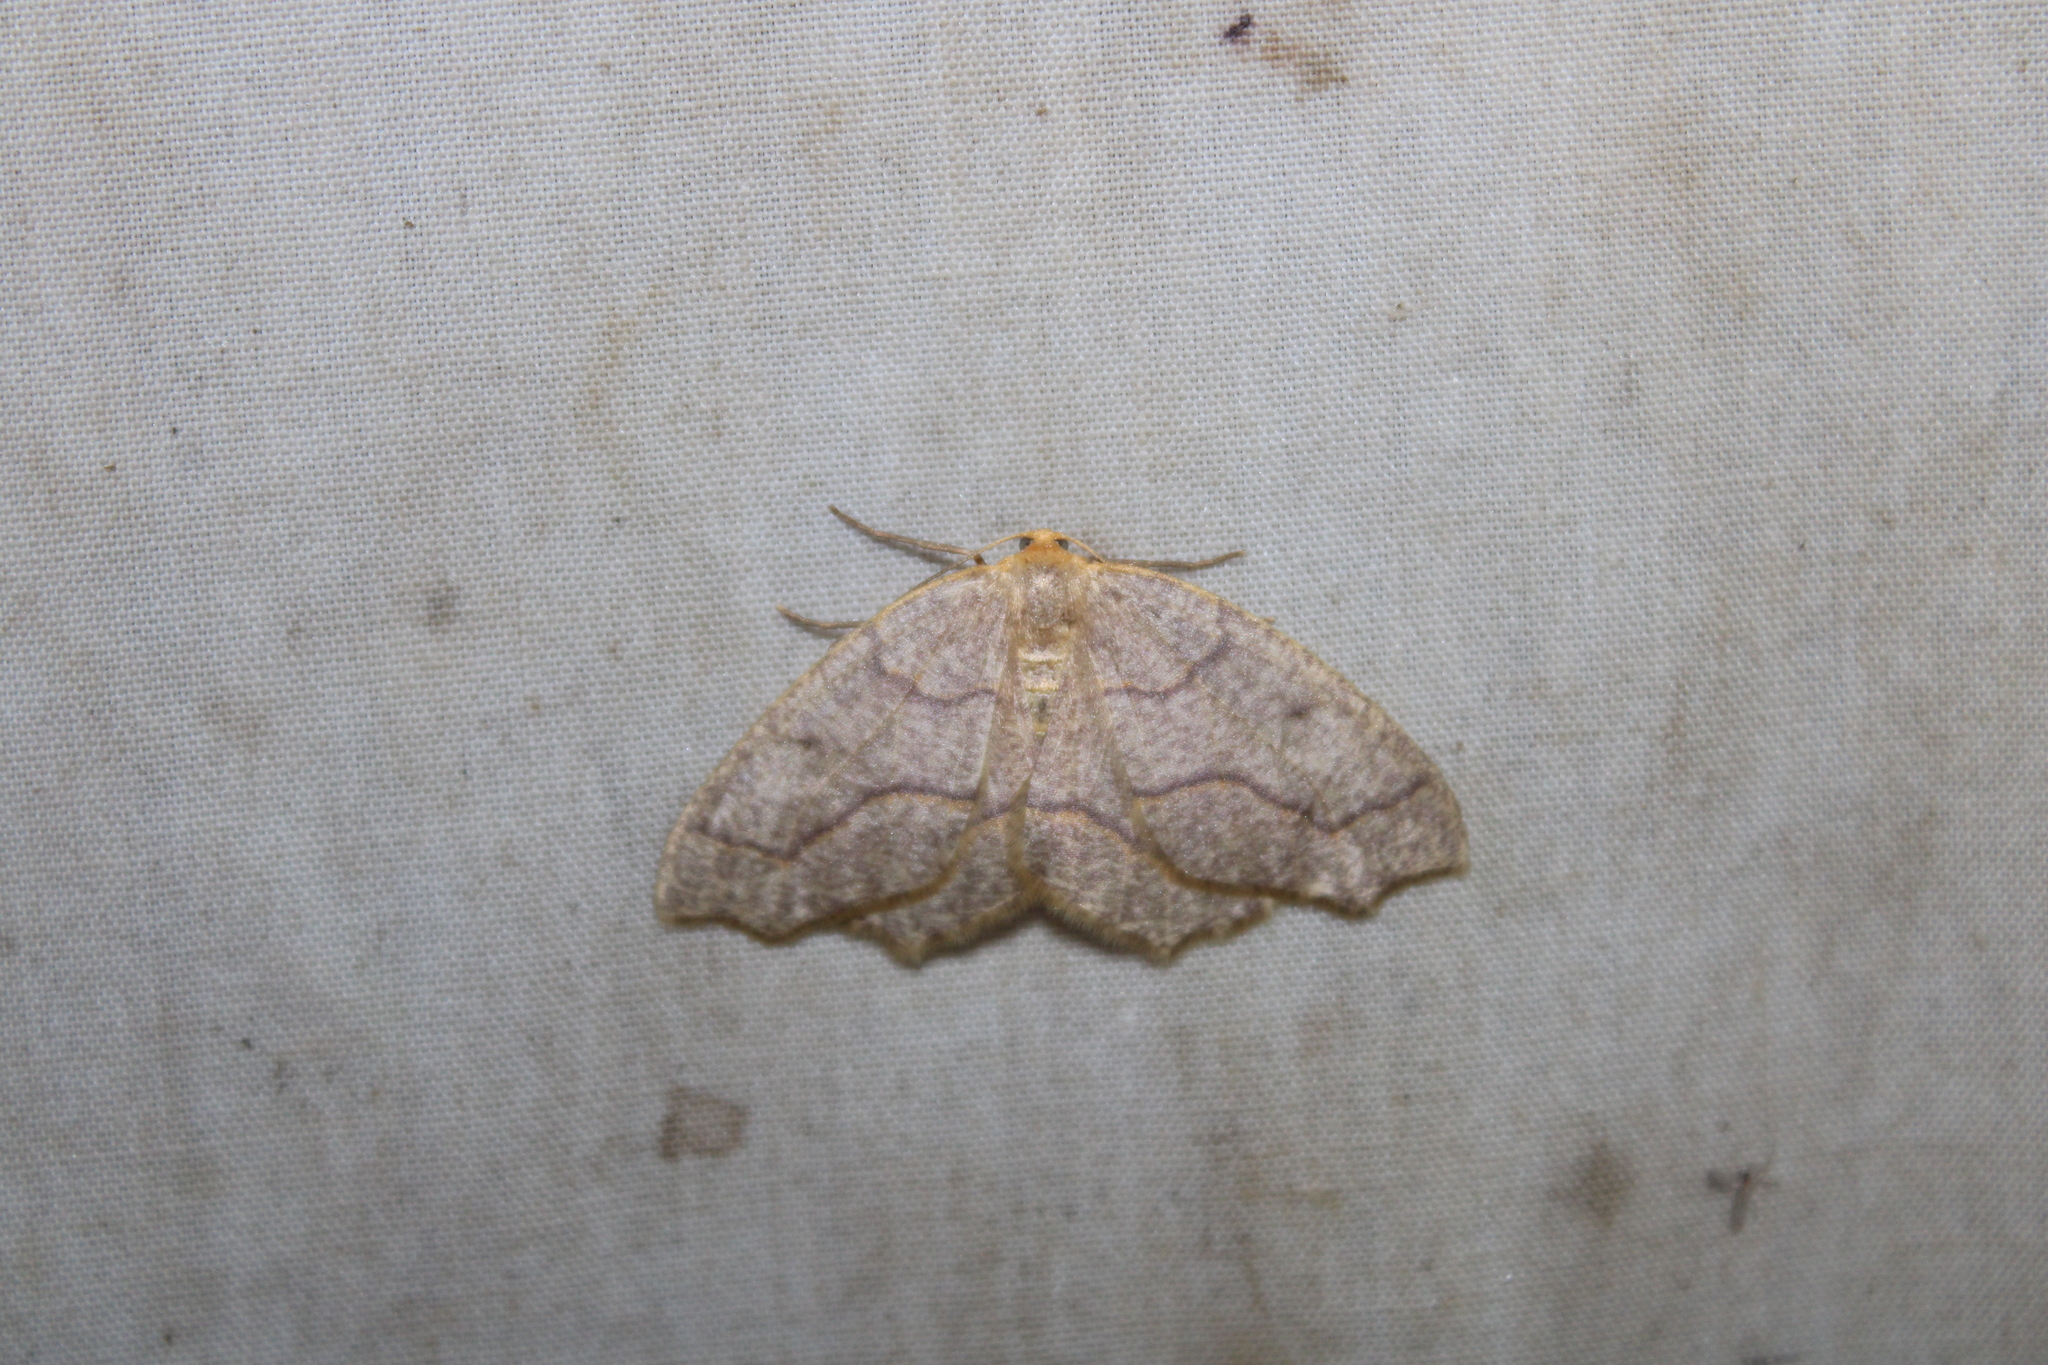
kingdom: Animalia
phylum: Arthropoda
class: Insecta
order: Lepidoptera
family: Geometridae
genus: Lambdina
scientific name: Lambdina fiscellaria
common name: Hemlock looper
